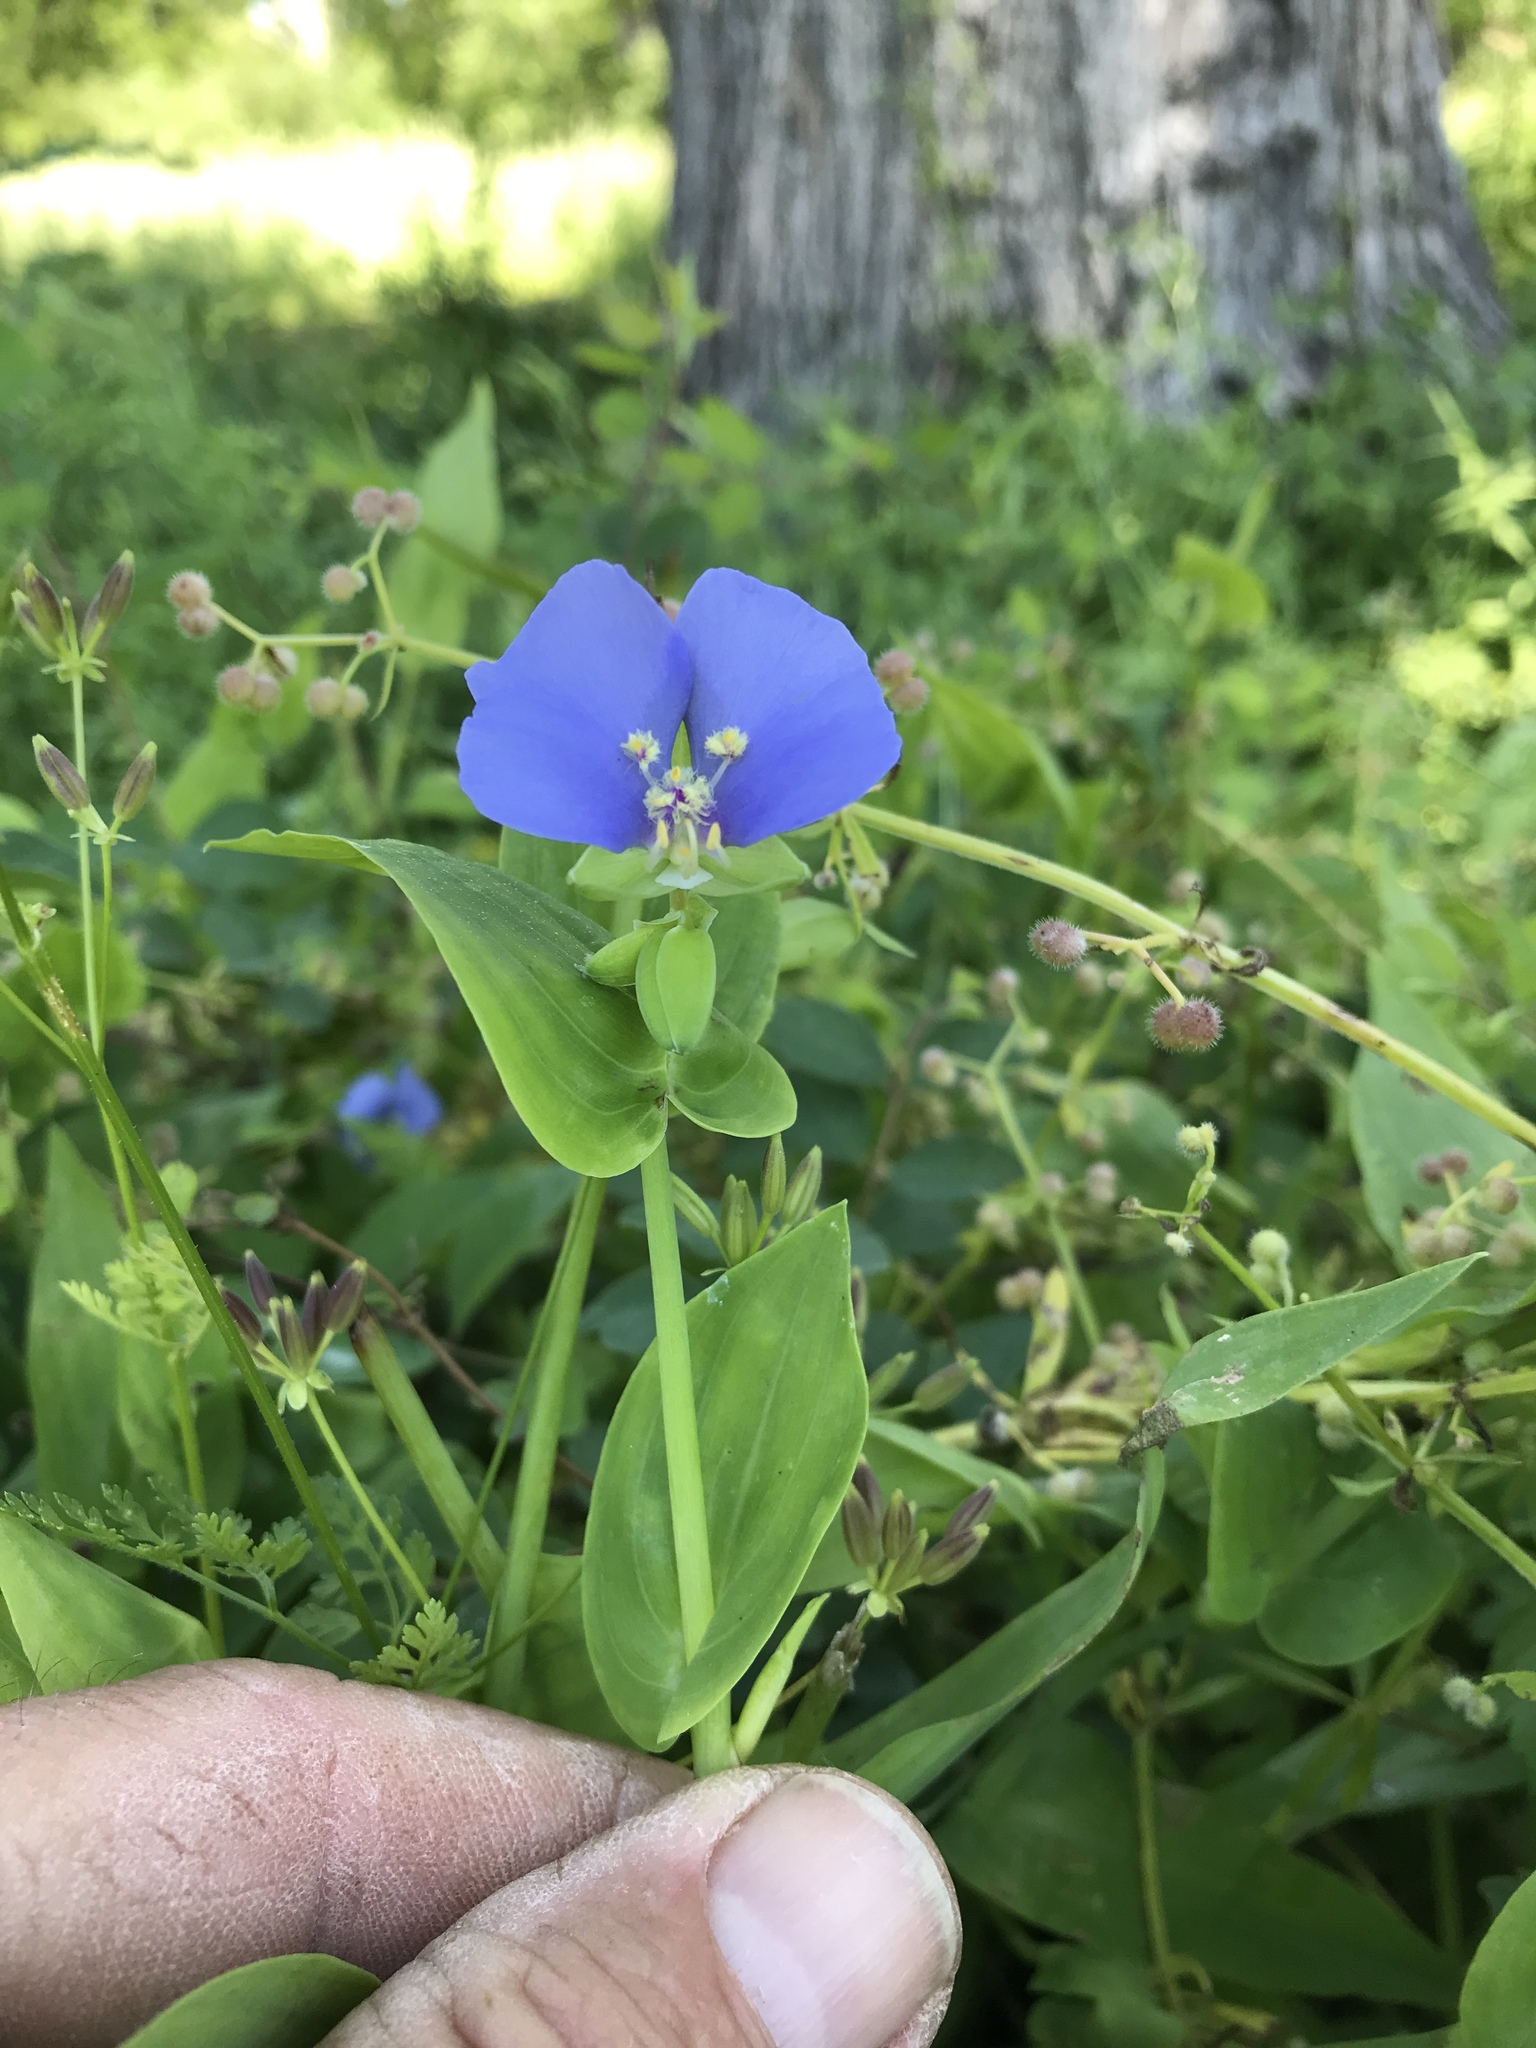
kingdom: Plantae
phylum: Tracheophyta
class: Liliopsida
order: Commelinales
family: Commelinaceae
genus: Tinantia
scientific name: Tinantia anomala
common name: False dayflower
